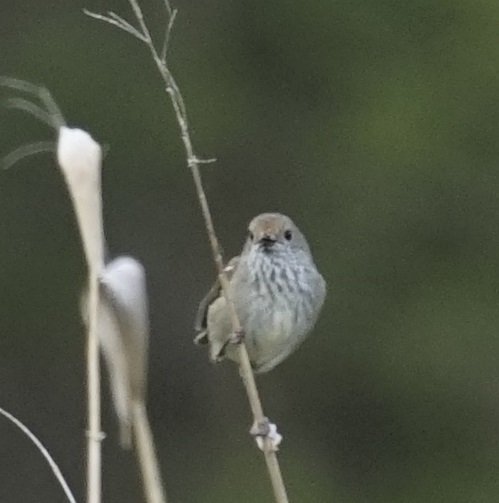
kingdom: Animalia
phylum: Chordata
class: Aves
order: Passeriformes
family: Acanthizidae
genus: Acanthiza
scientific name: Acanthiza pusilla
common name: Brown thornbill
